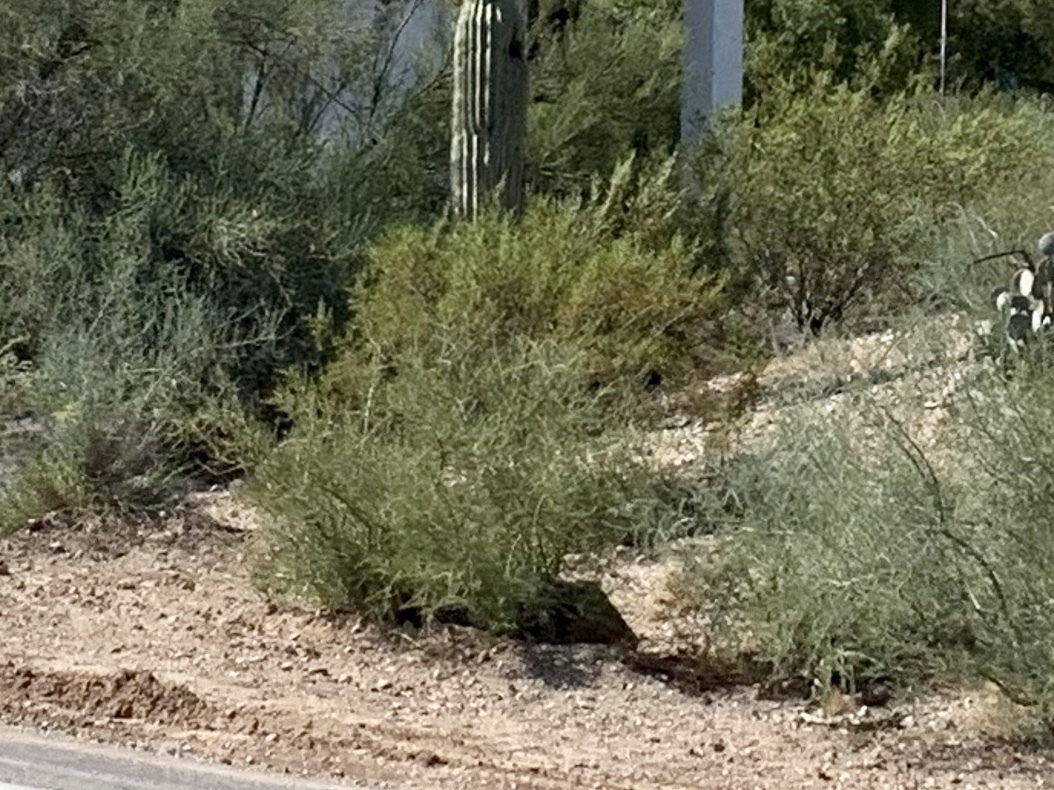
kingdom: Plantae
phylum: Tracheophyta
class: Magnoliopsida
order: Zygophyllales
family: Zygophyllaceae
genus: Larrea
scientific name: Larrea tridentata
